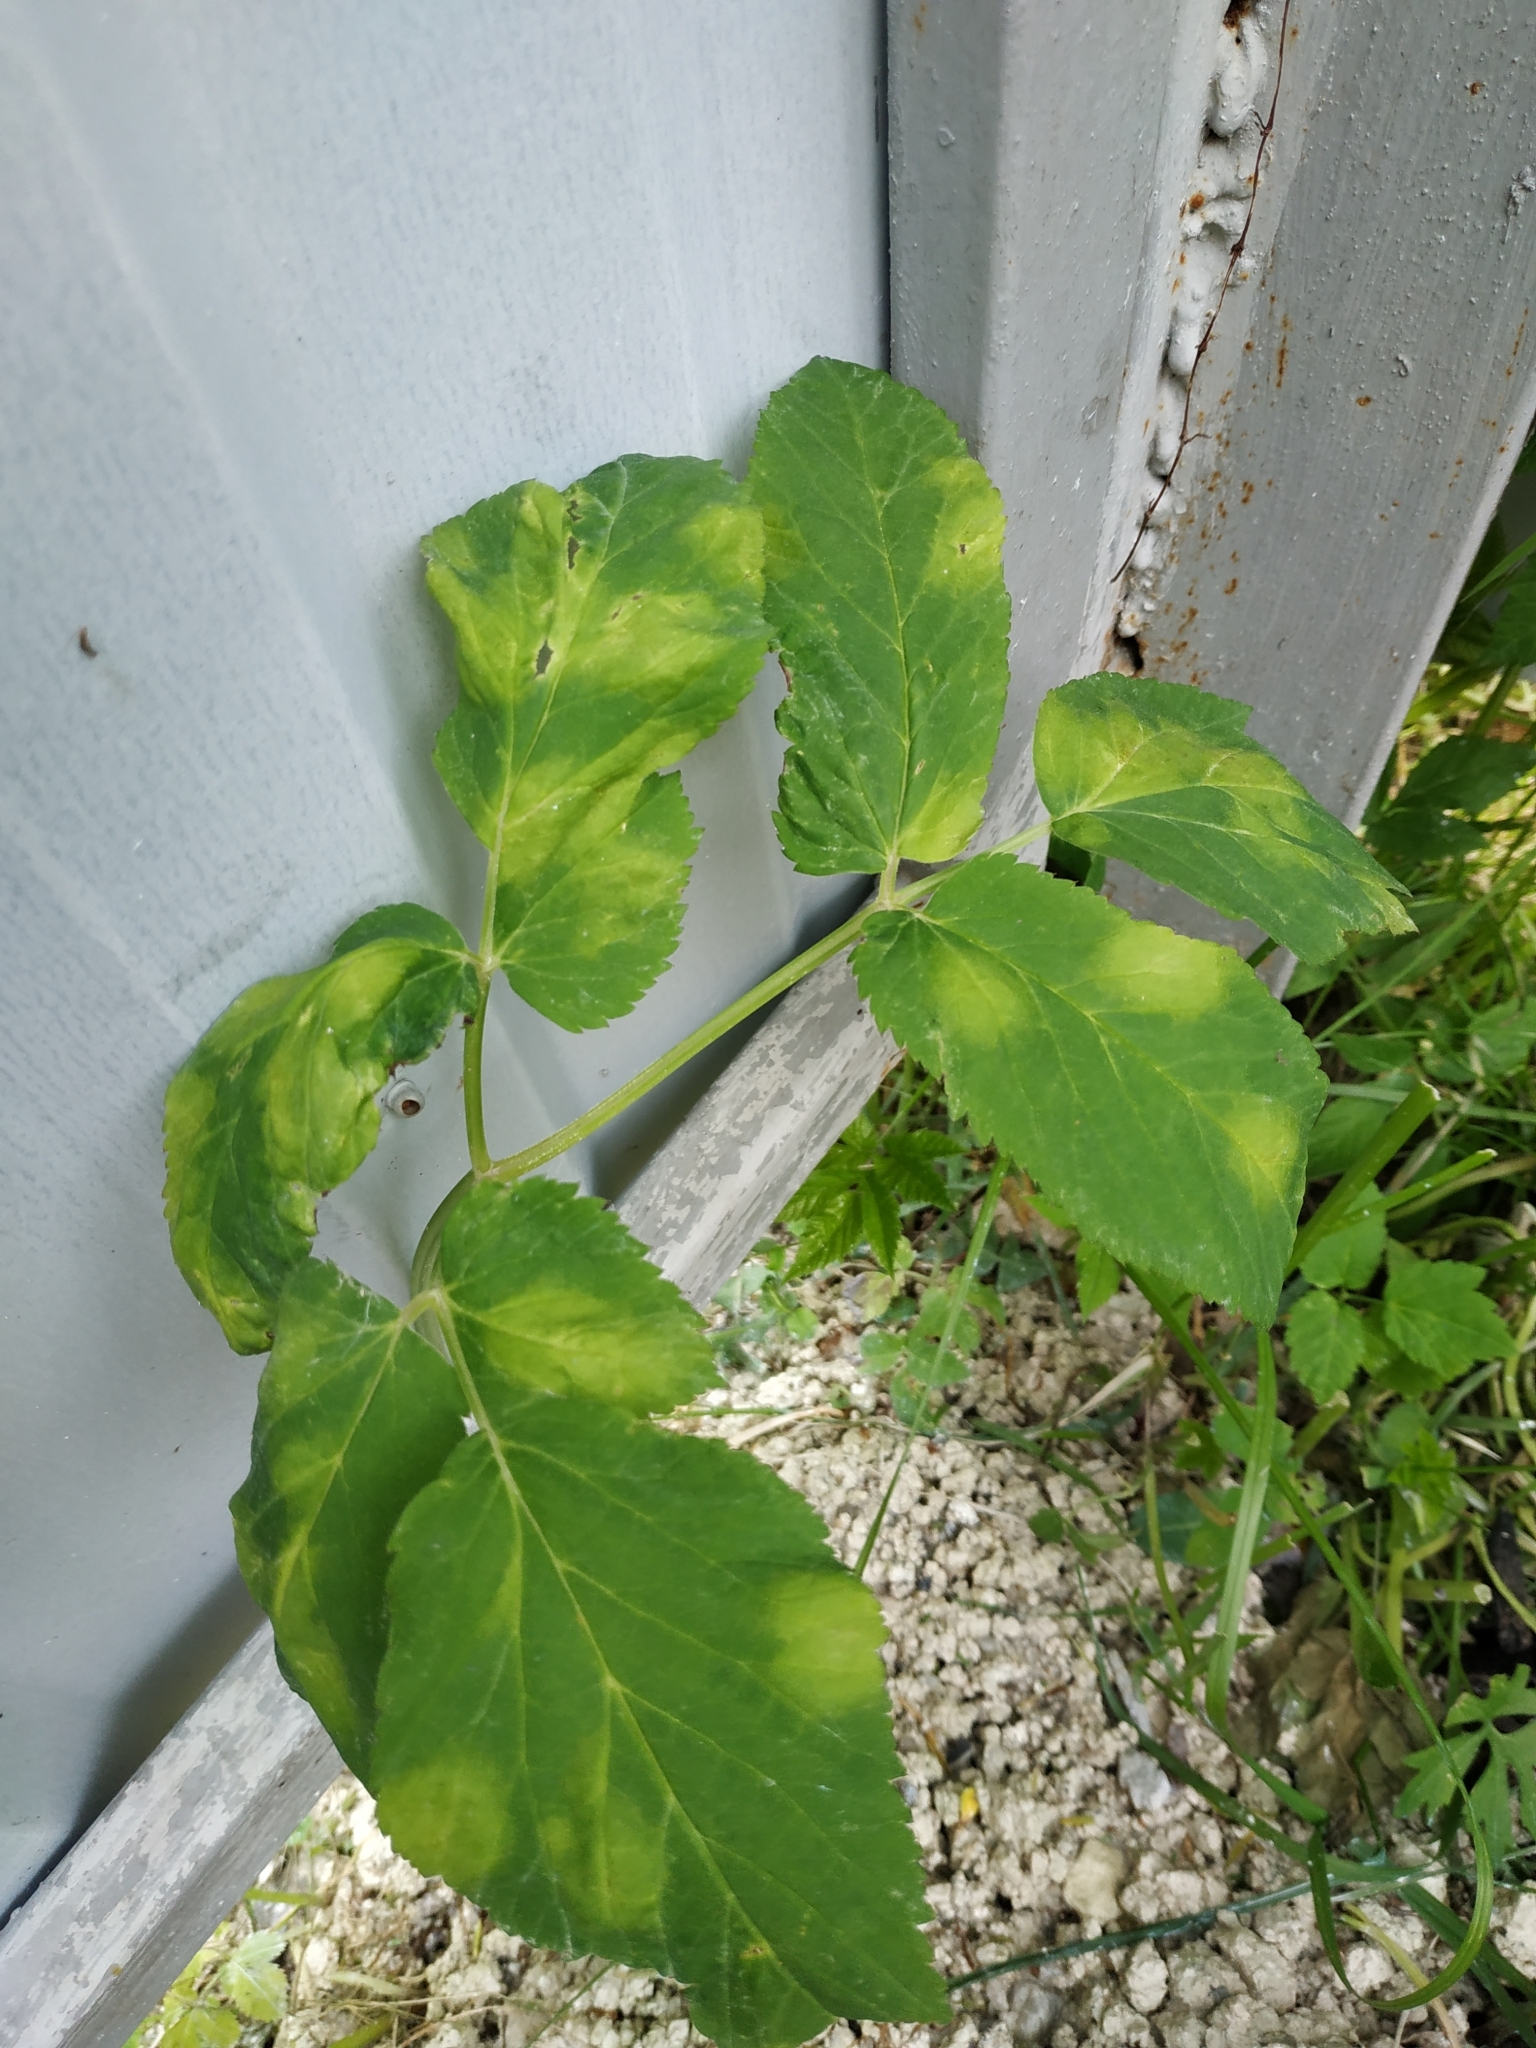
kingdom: Plantae
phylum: Tracheophyta
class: Magnoliopsida
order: Apiales
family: Apiaceae
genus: Aegopodium
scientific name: Aegopodium podagraria
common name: Ground-elder
